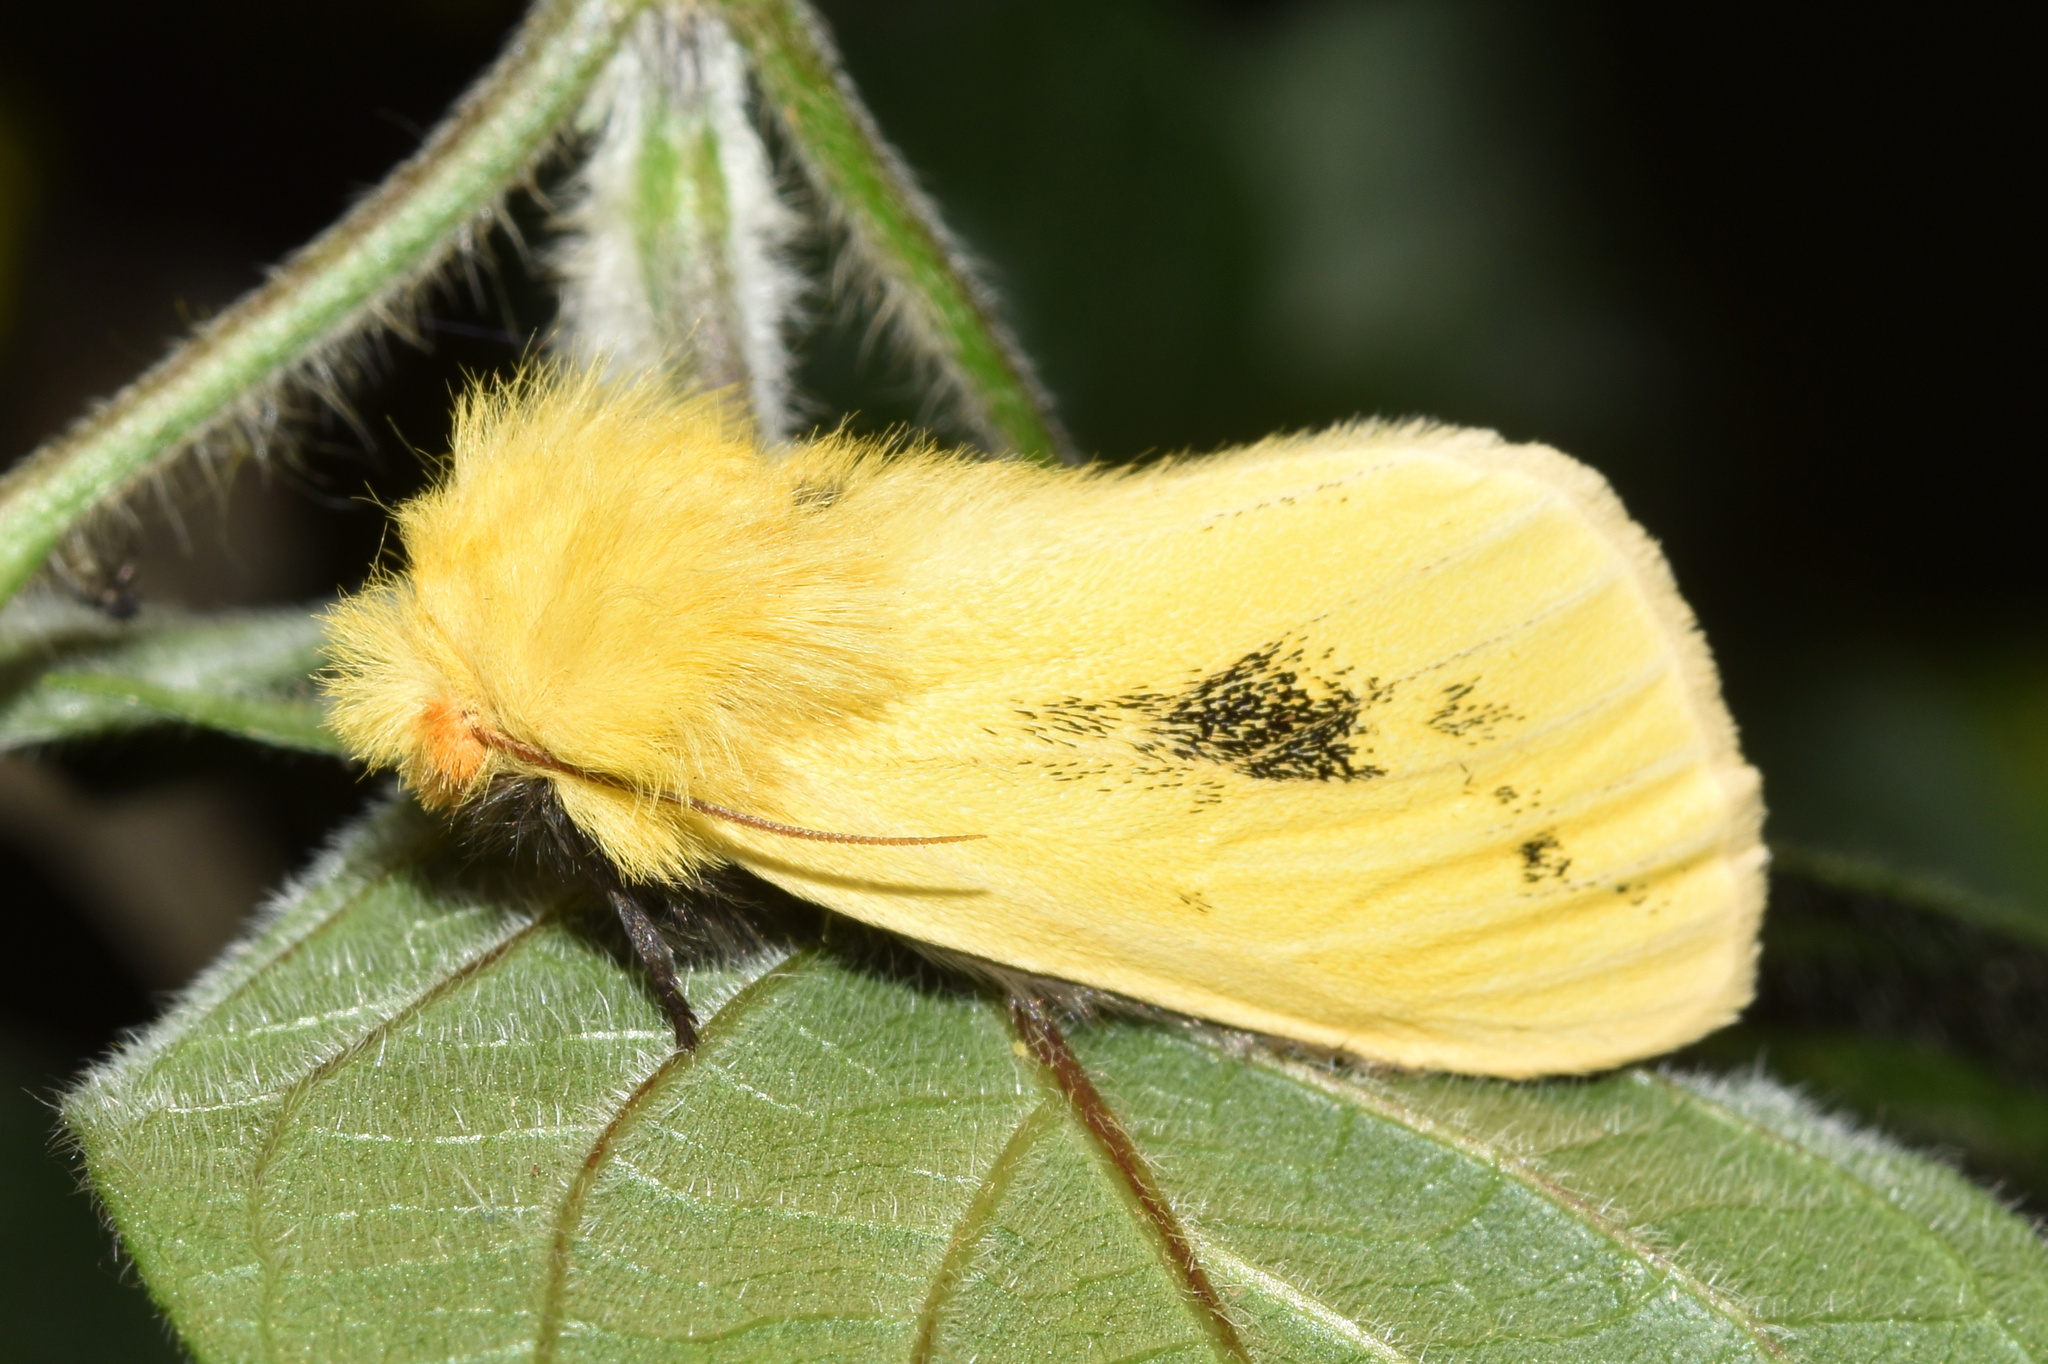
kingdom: Animalia
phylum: Arthropoda
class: Insecta
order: Lepidoptera
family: Notodontidae
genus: Antheua
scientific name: Antheua tricolor
